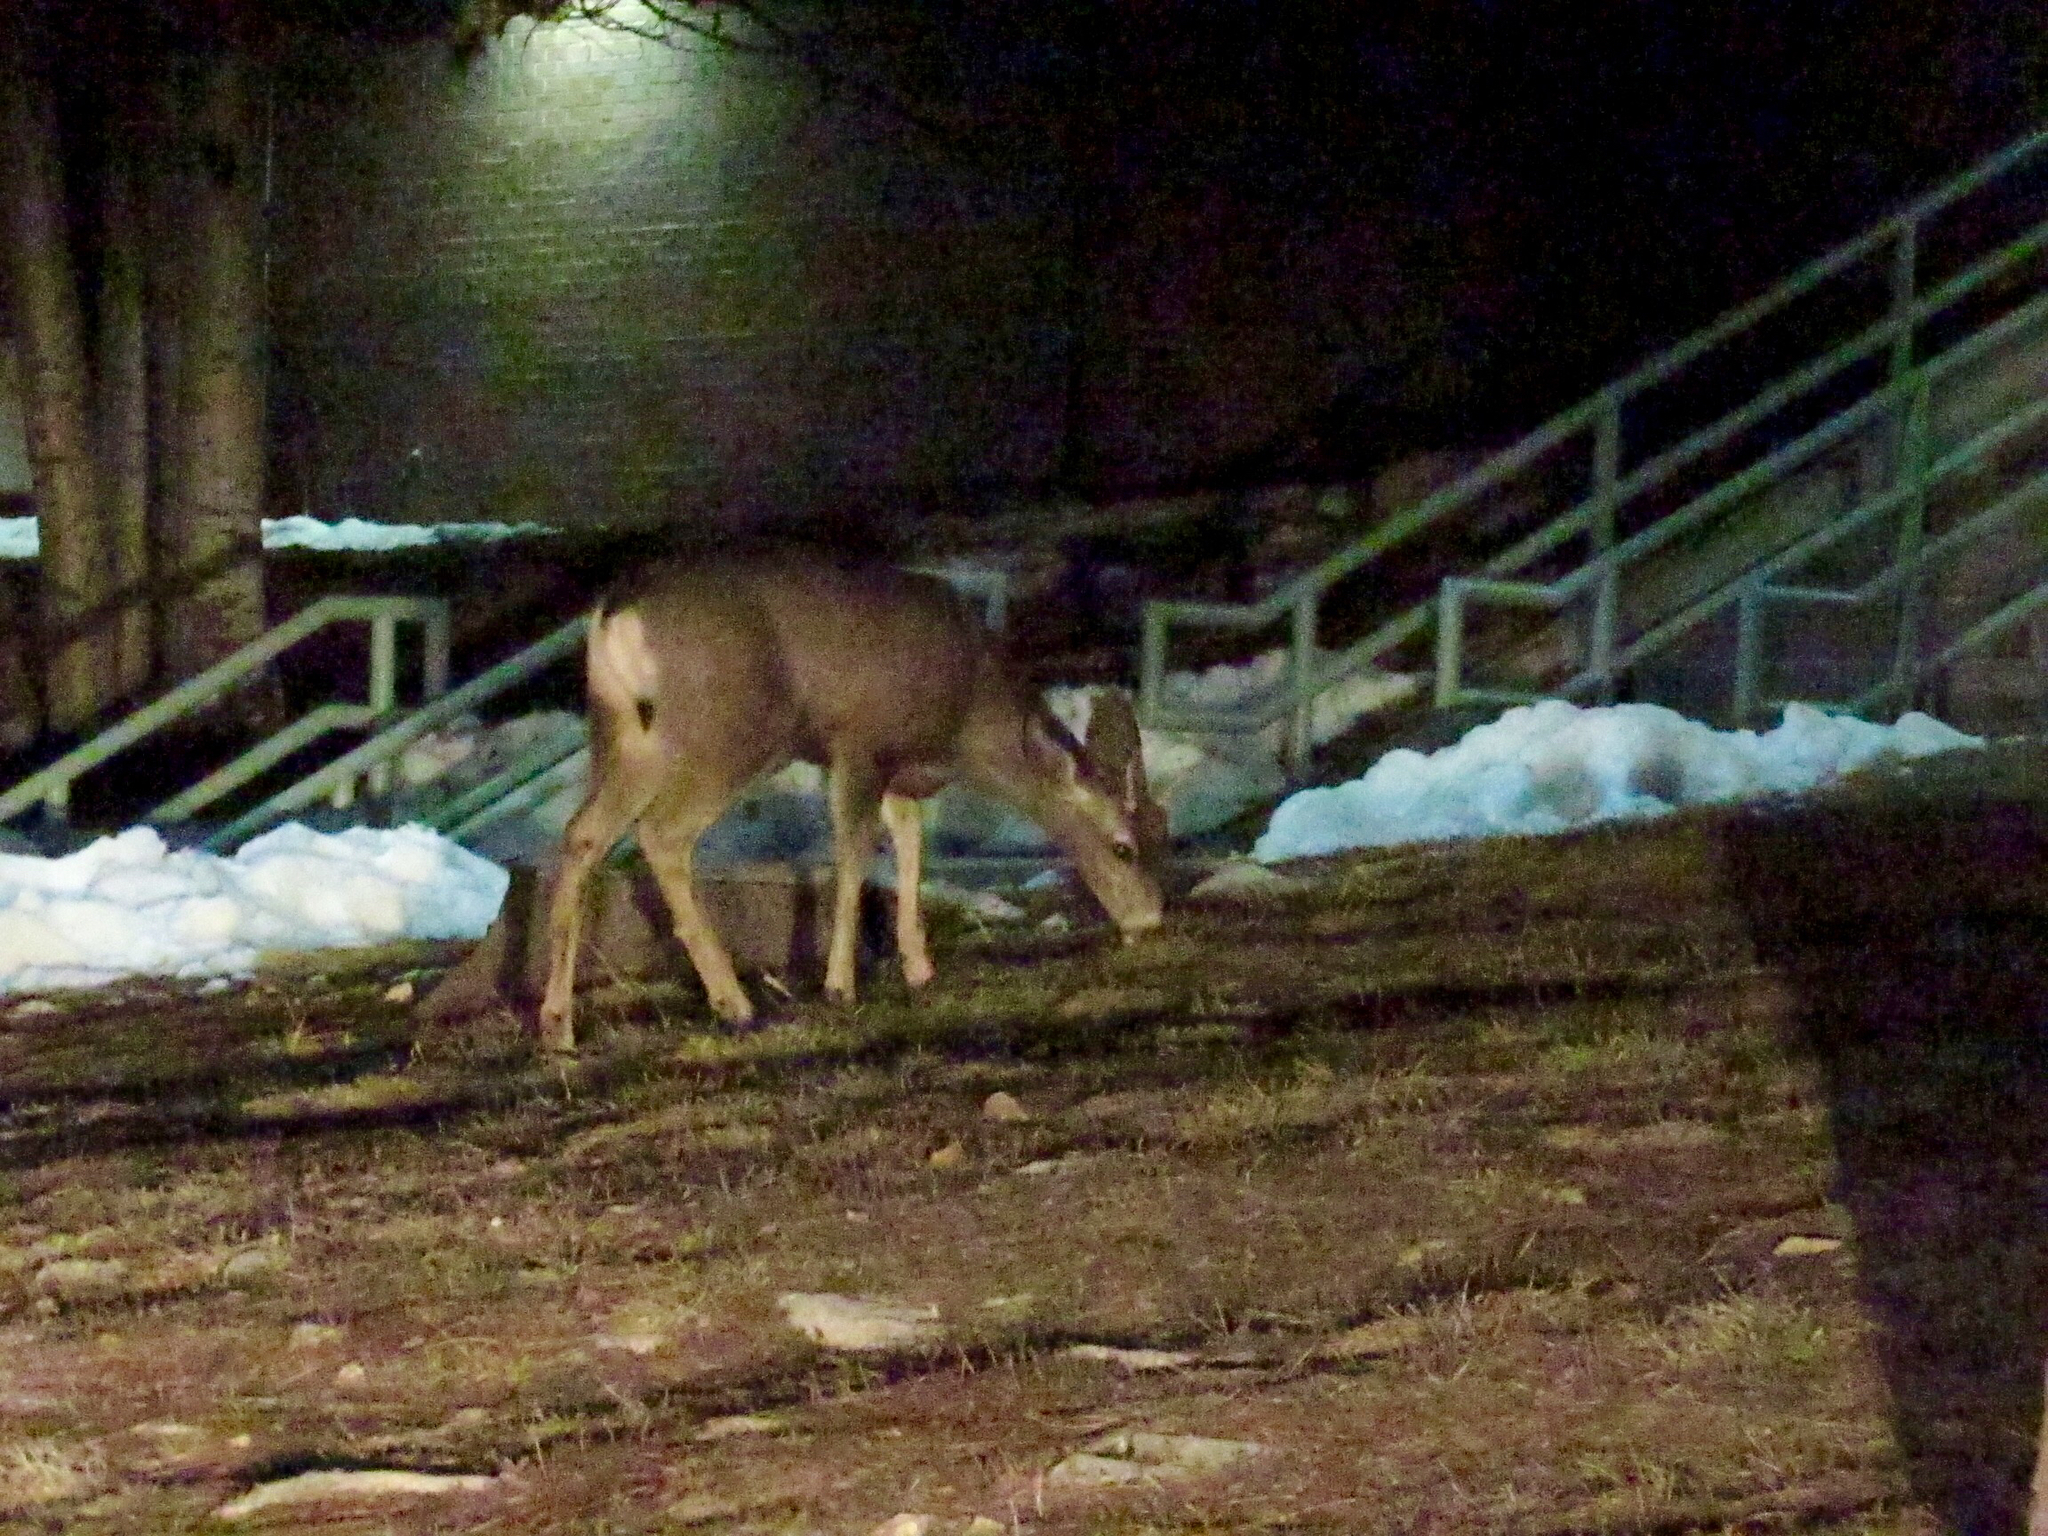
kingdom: Animalia
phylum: Chordata
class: Mammalia
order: Artiodactyla
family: Cervidae
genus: Odocoileus
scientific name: Odocoileus hemionus
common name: Mule deer
